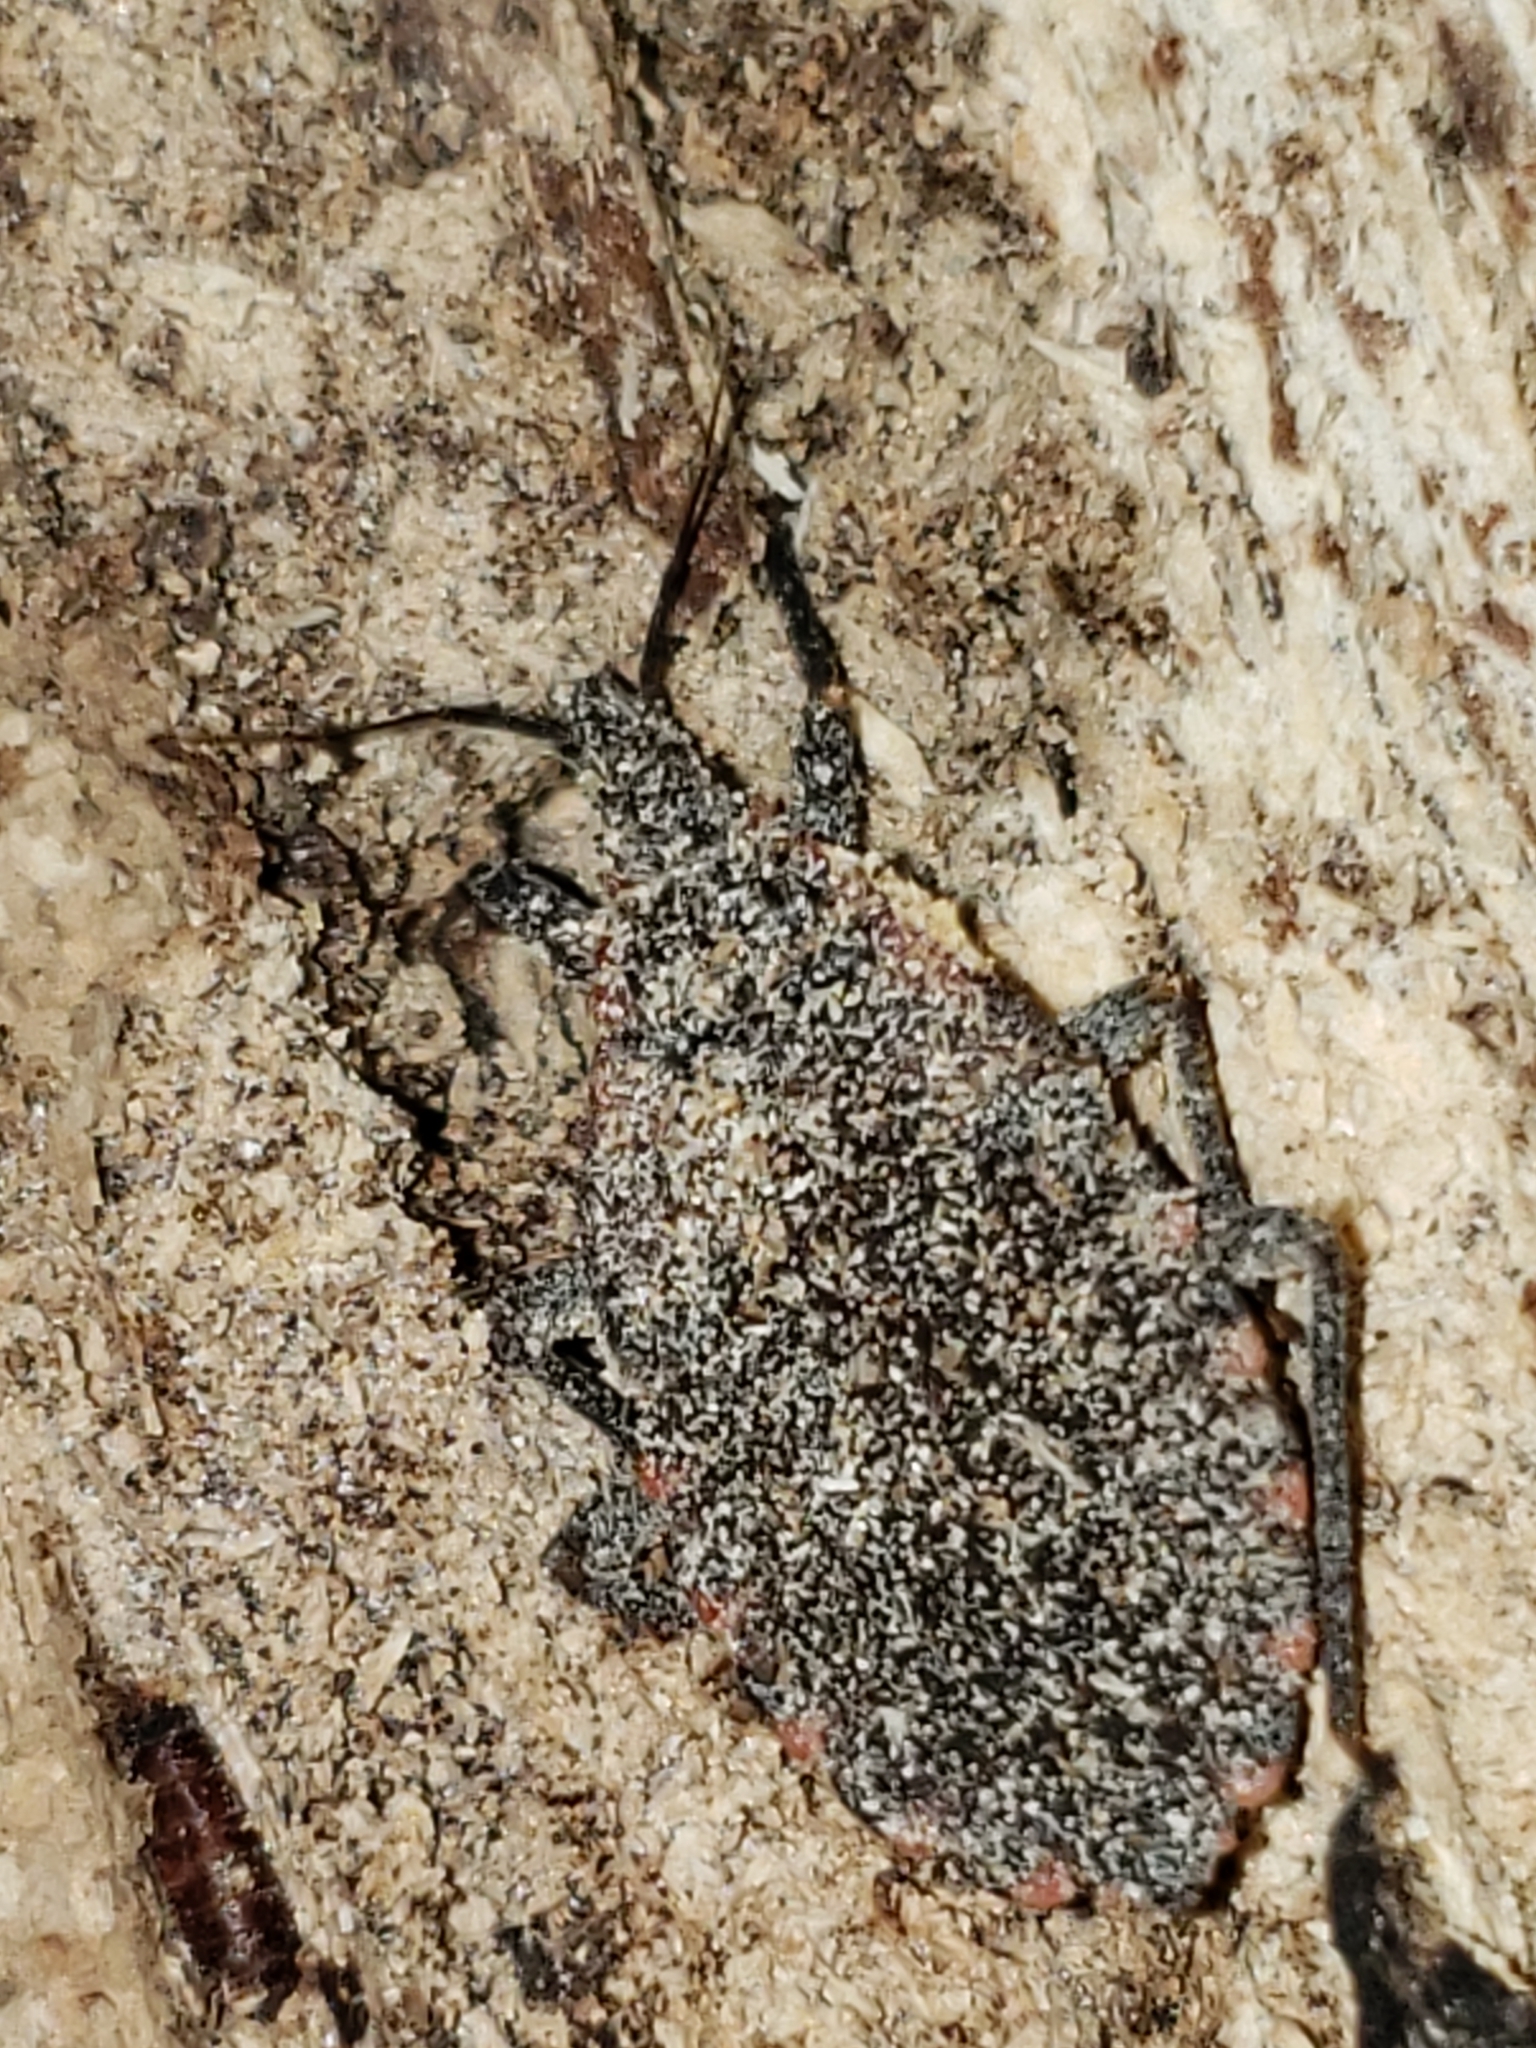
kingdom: Animalia
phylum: Arthropoda
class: Insecta
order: Hemiptera
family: Reduviidae
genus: Triatoma
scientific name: Triatoma sanguisuga
